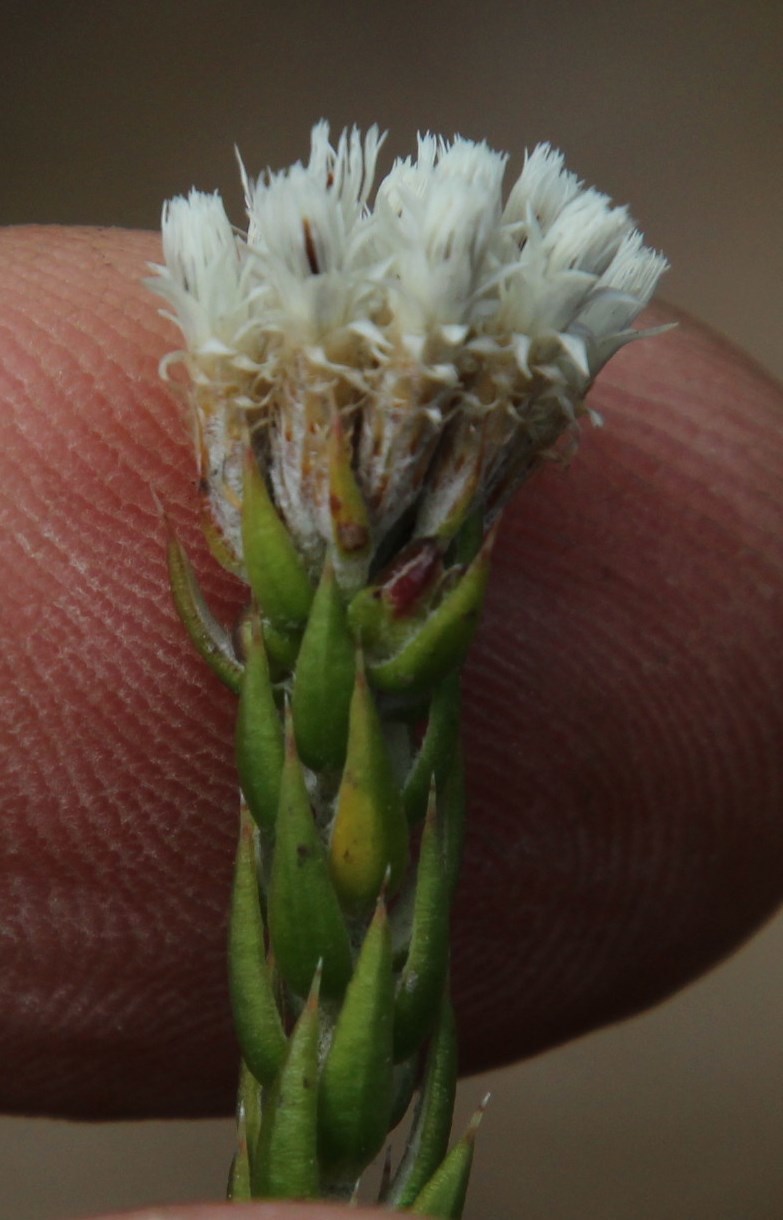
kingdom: Plantae
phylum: Tracheophyta
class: Magnoliopsida
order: Asterales
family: Asteraceae
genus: Metalasia
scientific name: Metalasia pulcherrima
